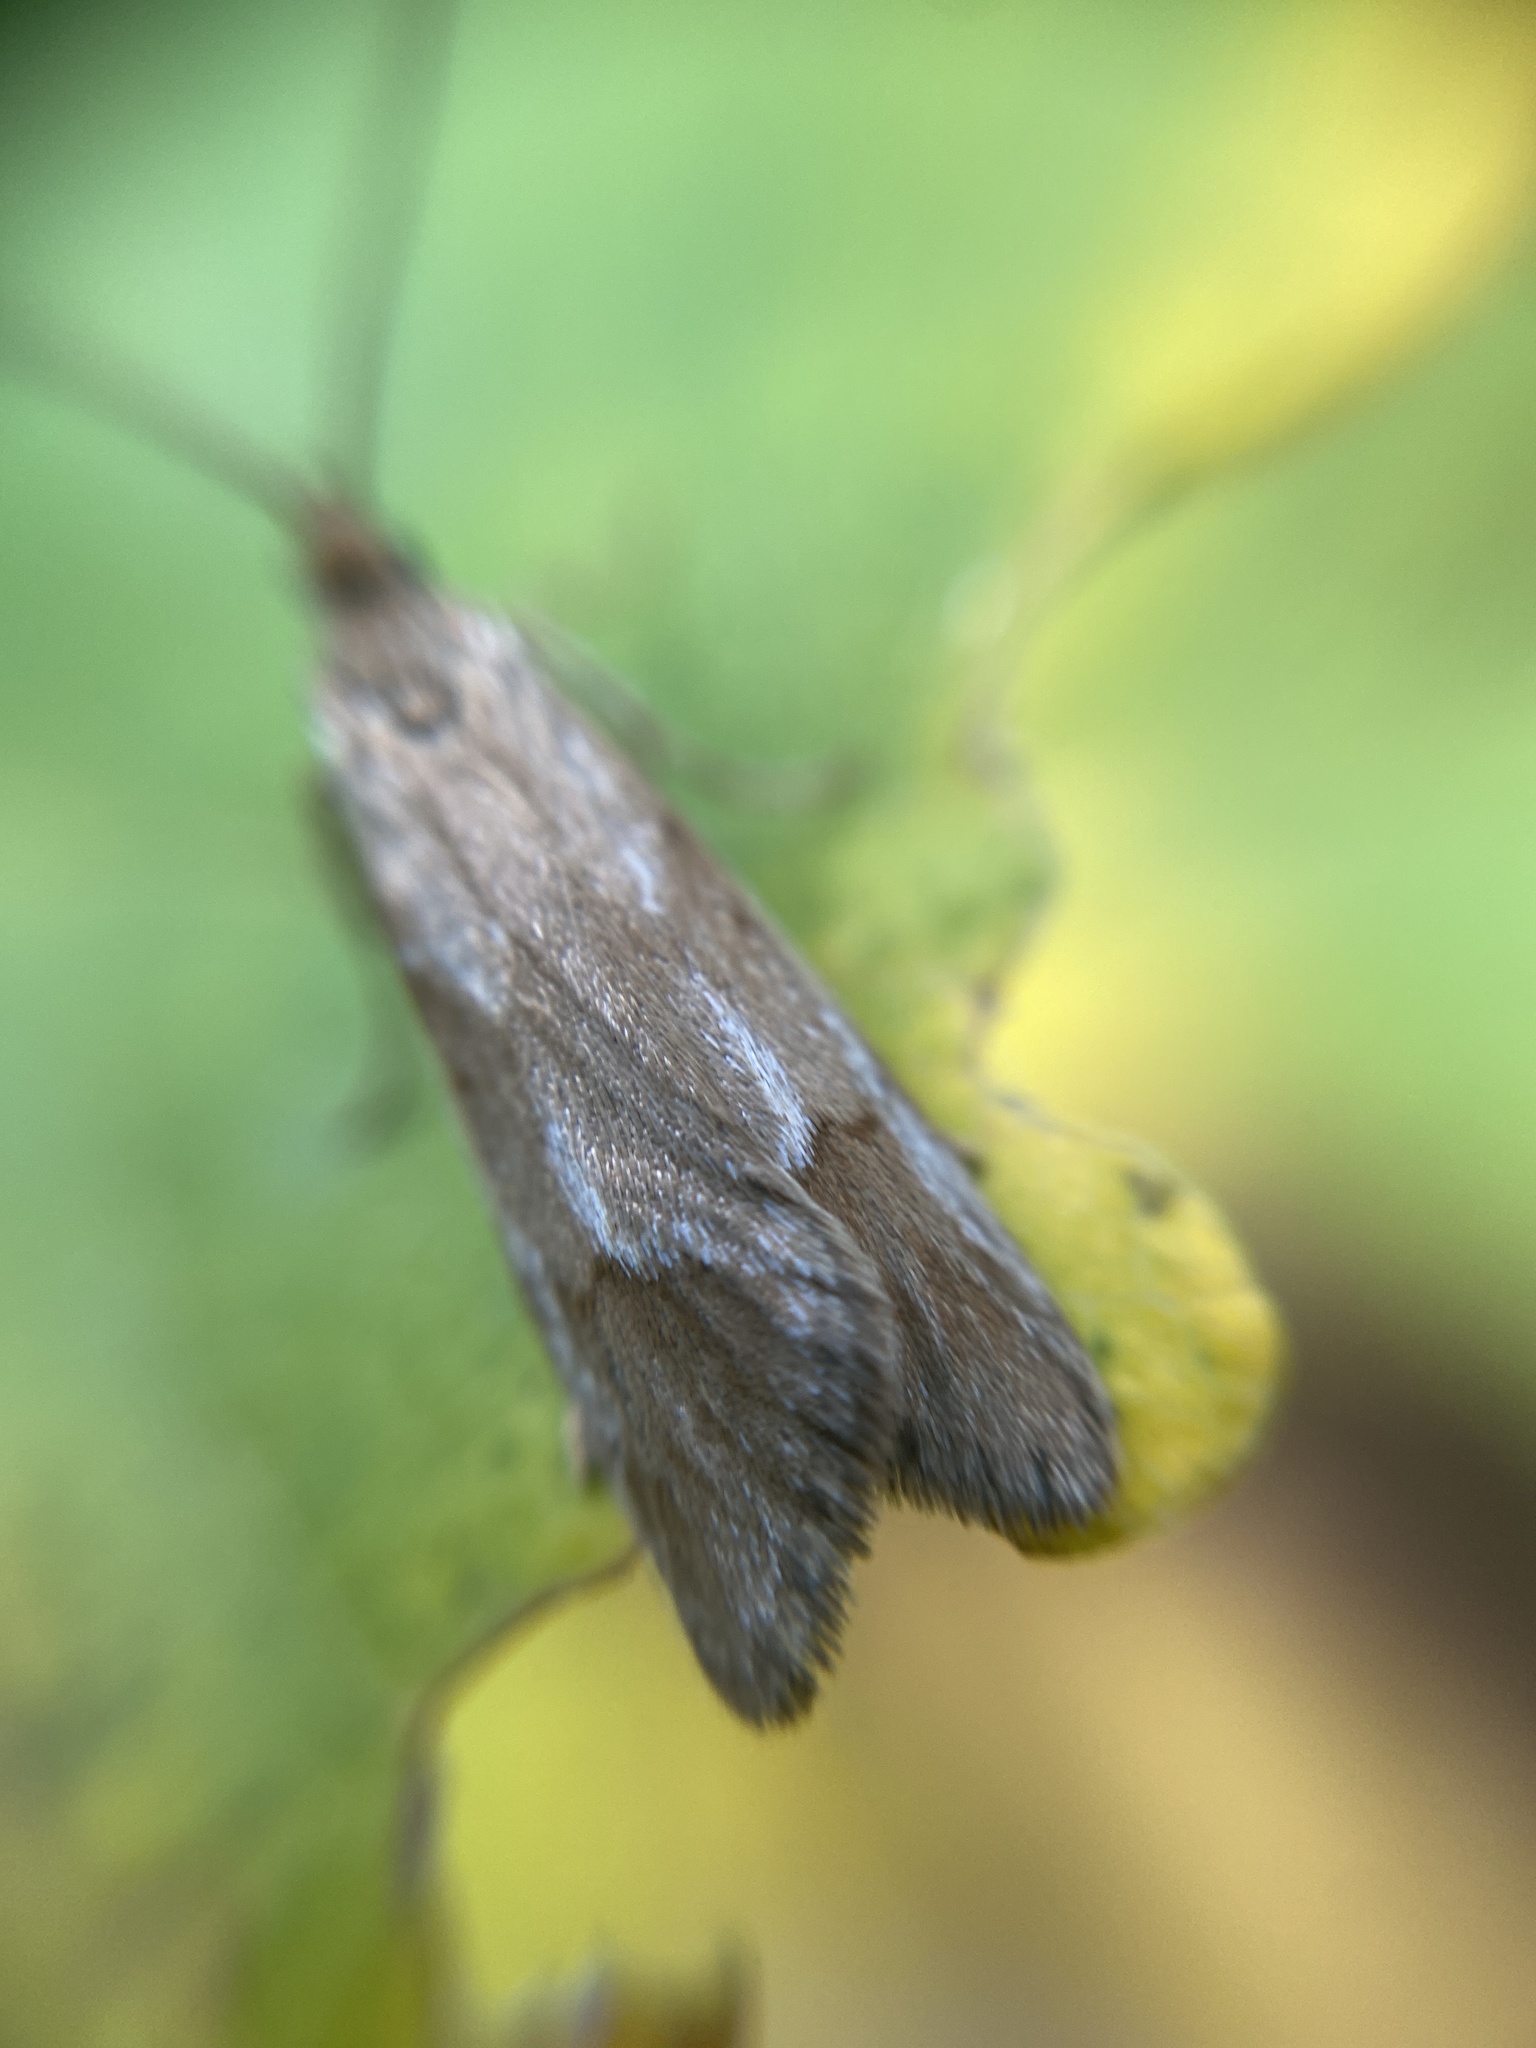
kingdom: Animalia
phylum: Arthropoda
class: Insecta
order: Lepidoptera
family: Lypusidae
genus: Diurnea
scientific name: Diurnea lipsiella
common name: November tubic
